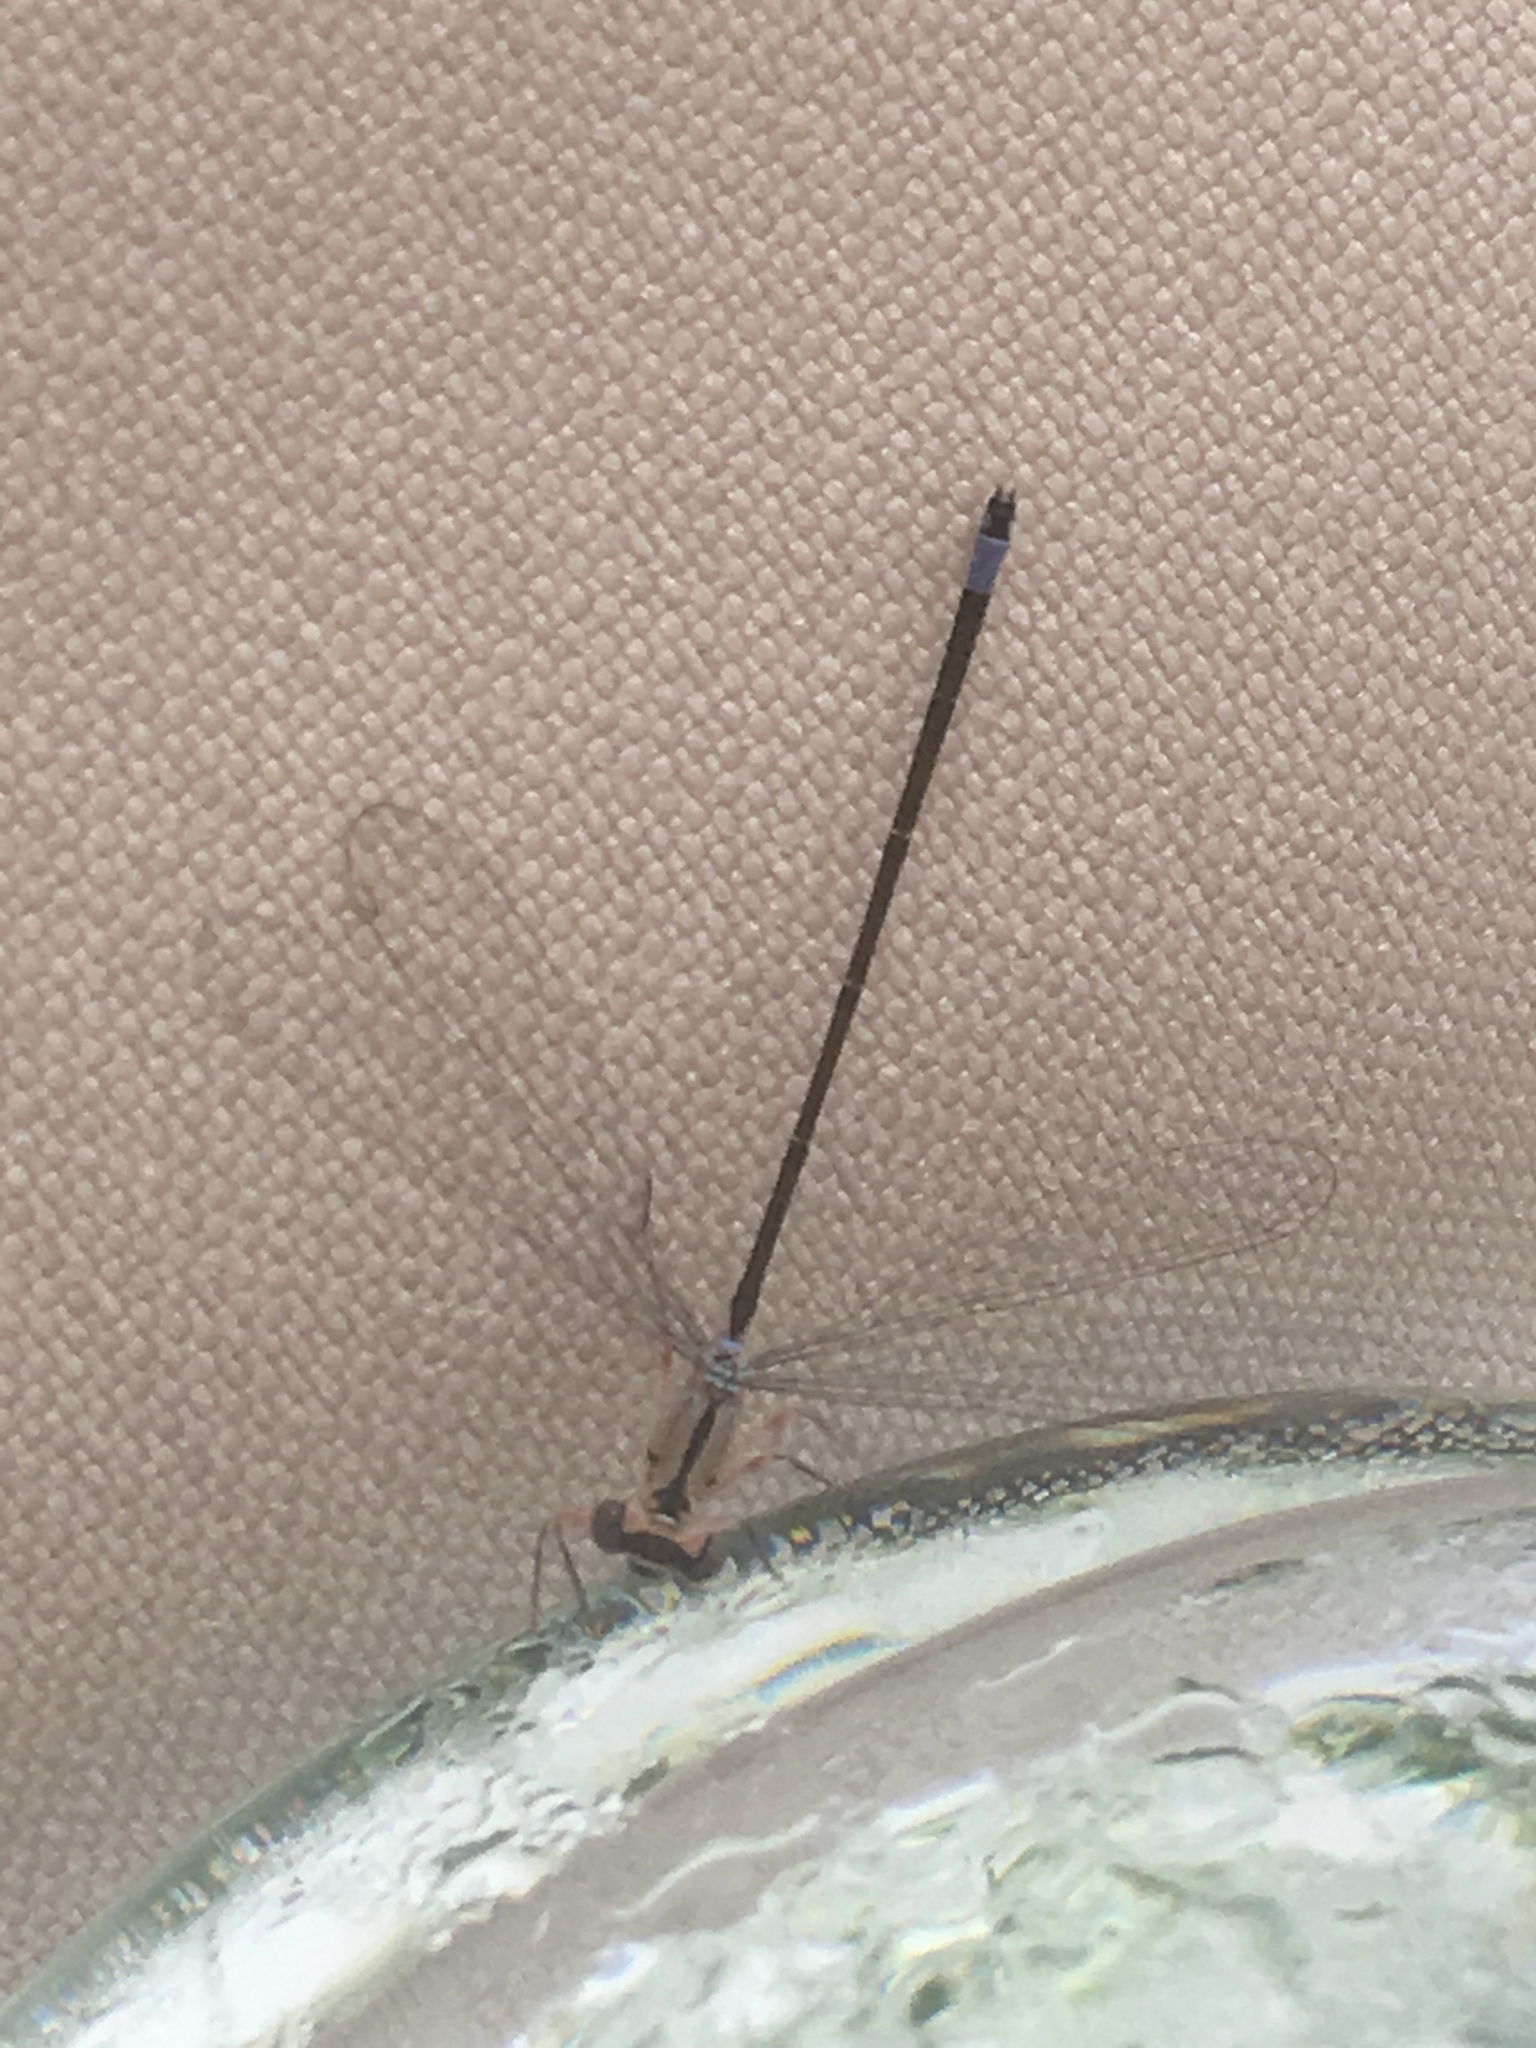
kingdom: Animalia
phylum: Arthropoda
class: Insecta
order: Odonata
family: Coenagrionidae
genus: Ischnura
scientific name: Ischnura cervula
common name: Pacific forktail
